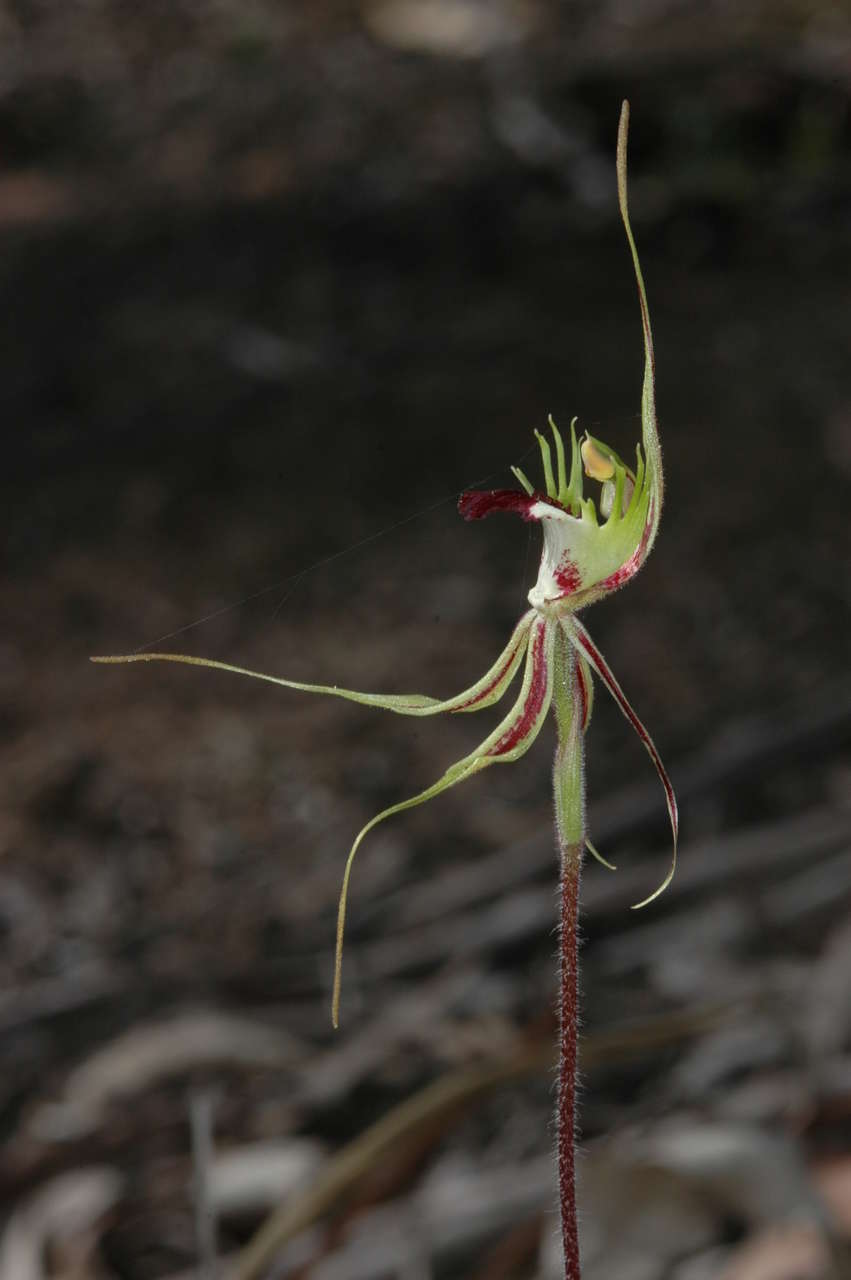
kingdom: Plantae
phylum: Tracheophyta
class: Liliopsida
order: Asparagales
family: Orchidaceae
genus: Caladenia
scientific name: Caladenia tentaculata
